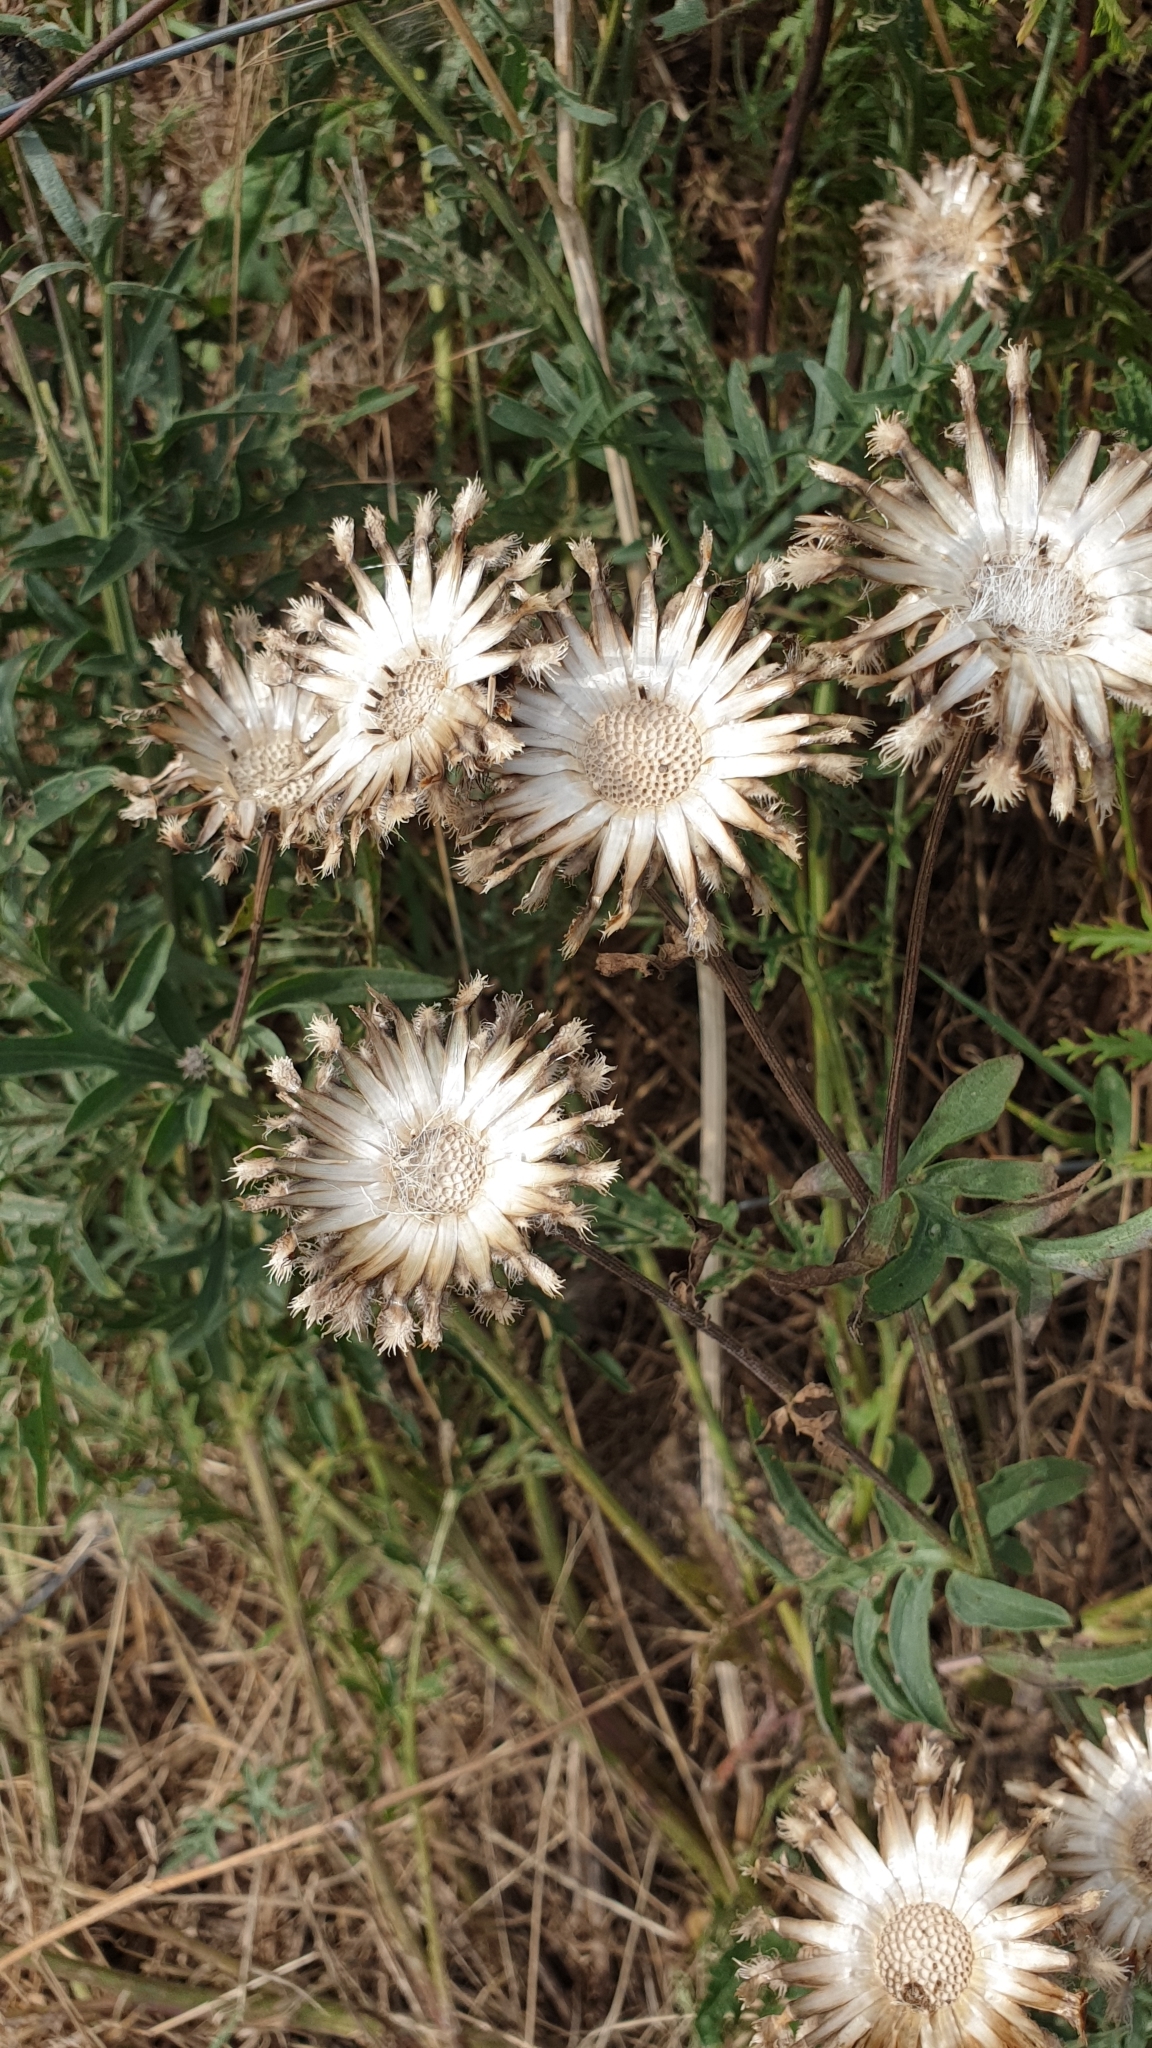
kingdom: Plantae
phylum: Tracheophyta
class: Magnoliopsida
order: Asterales
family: Asteraceae
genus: Centaurea
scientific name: Centaurea scabiosa
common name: Greater knapweed
